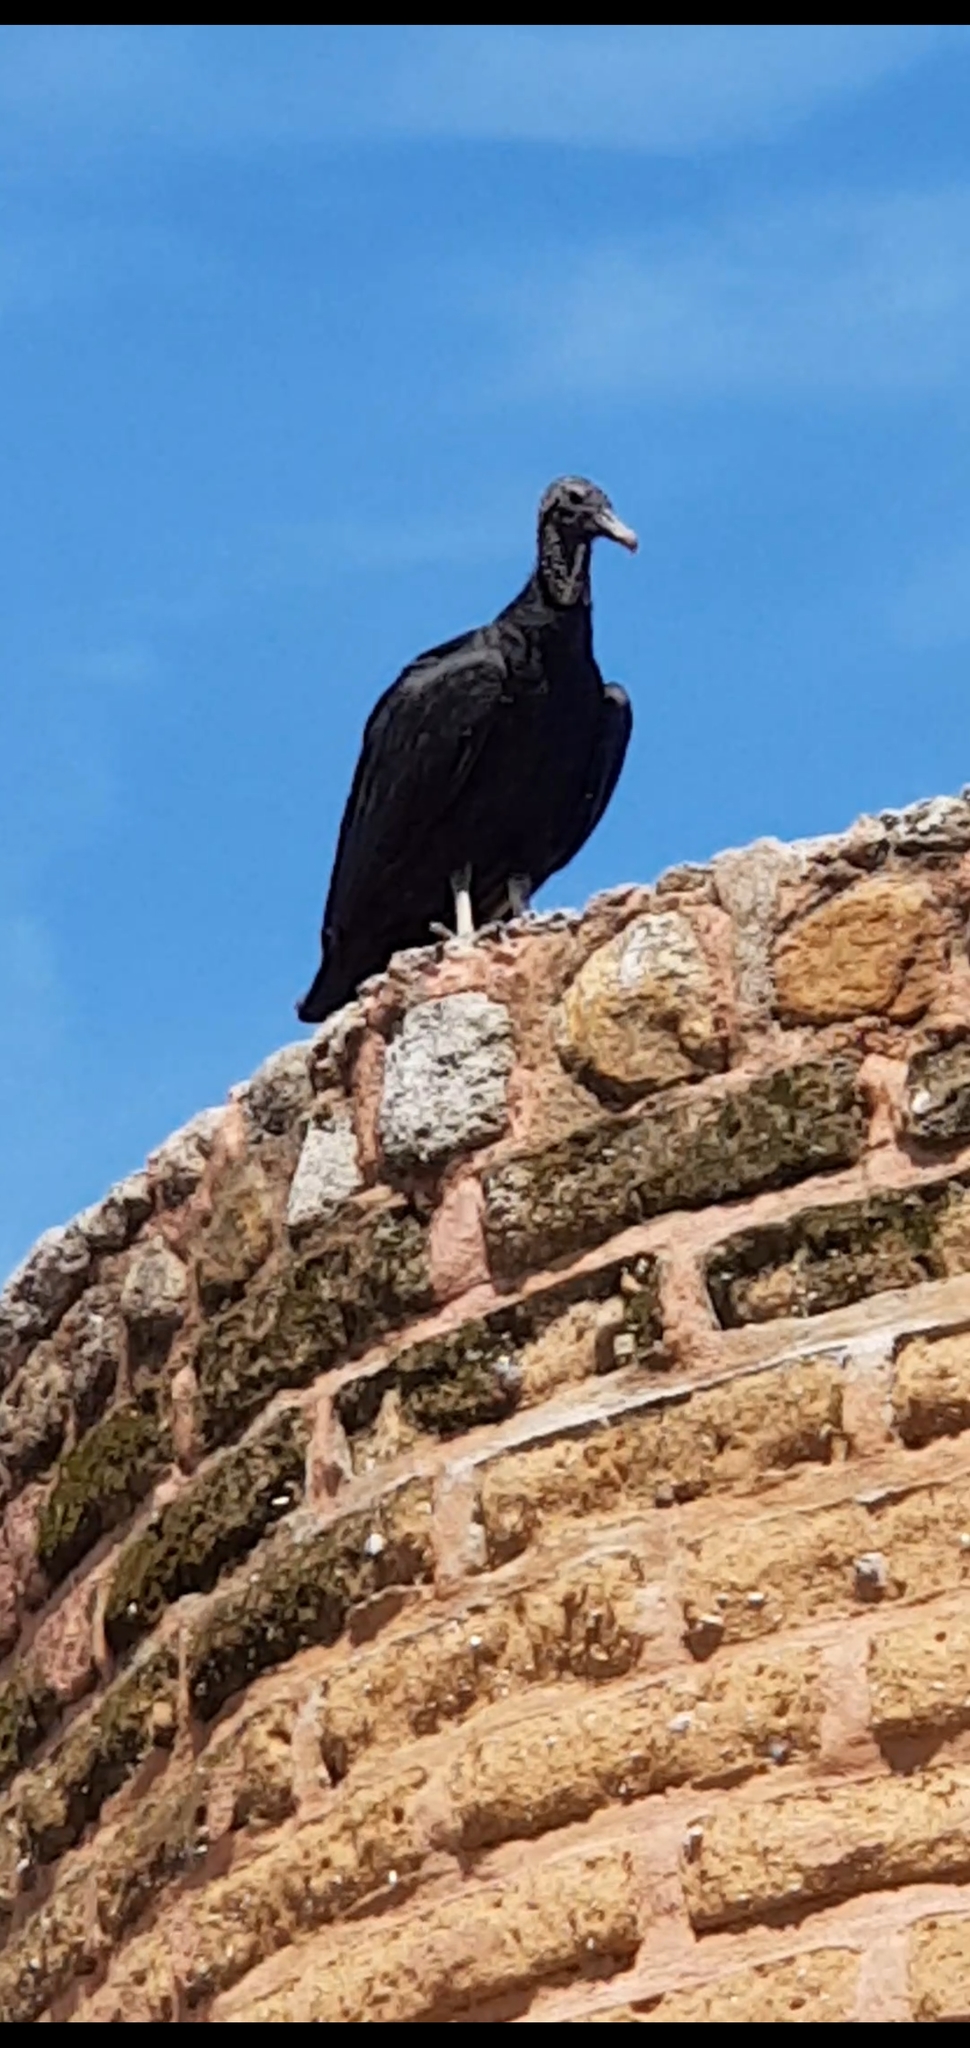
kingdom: Animalia
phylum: Chordata
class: Aves
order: Accipitriformes
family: Cathartidae
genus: Coragyps
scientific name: Coragyps atratus
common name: Black vulture
